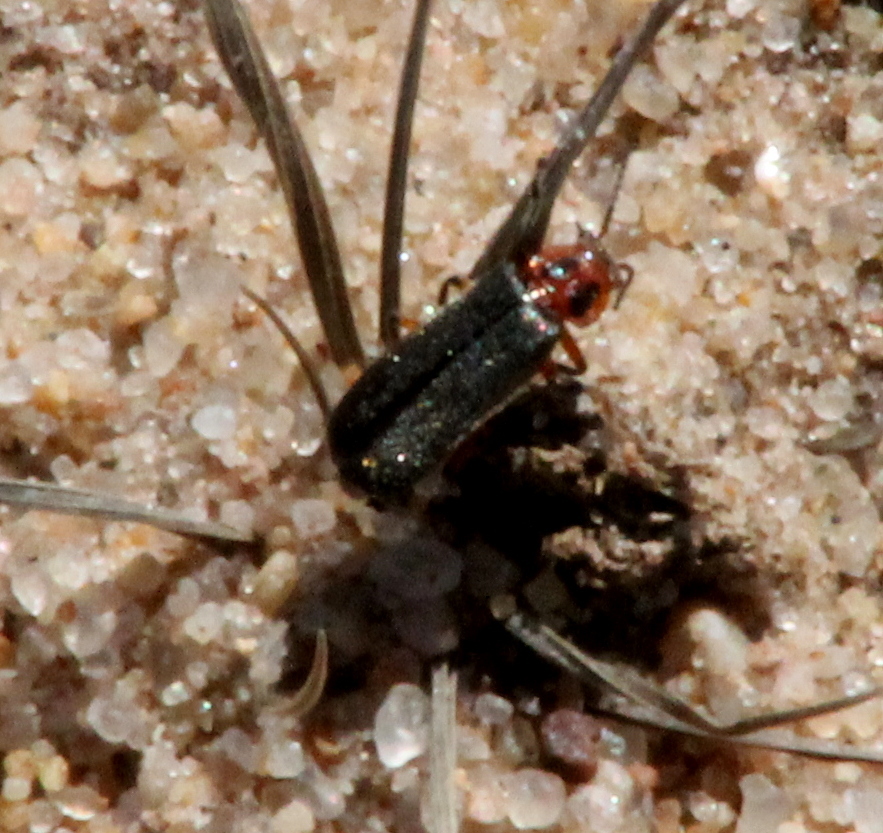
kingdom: Animalia
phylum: Arthropoda
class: Insecta
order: Coleoptera
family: Cantharidae
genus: Atalantycha
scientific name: Atalantycha bilineata
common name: Two-lined leatherwing
